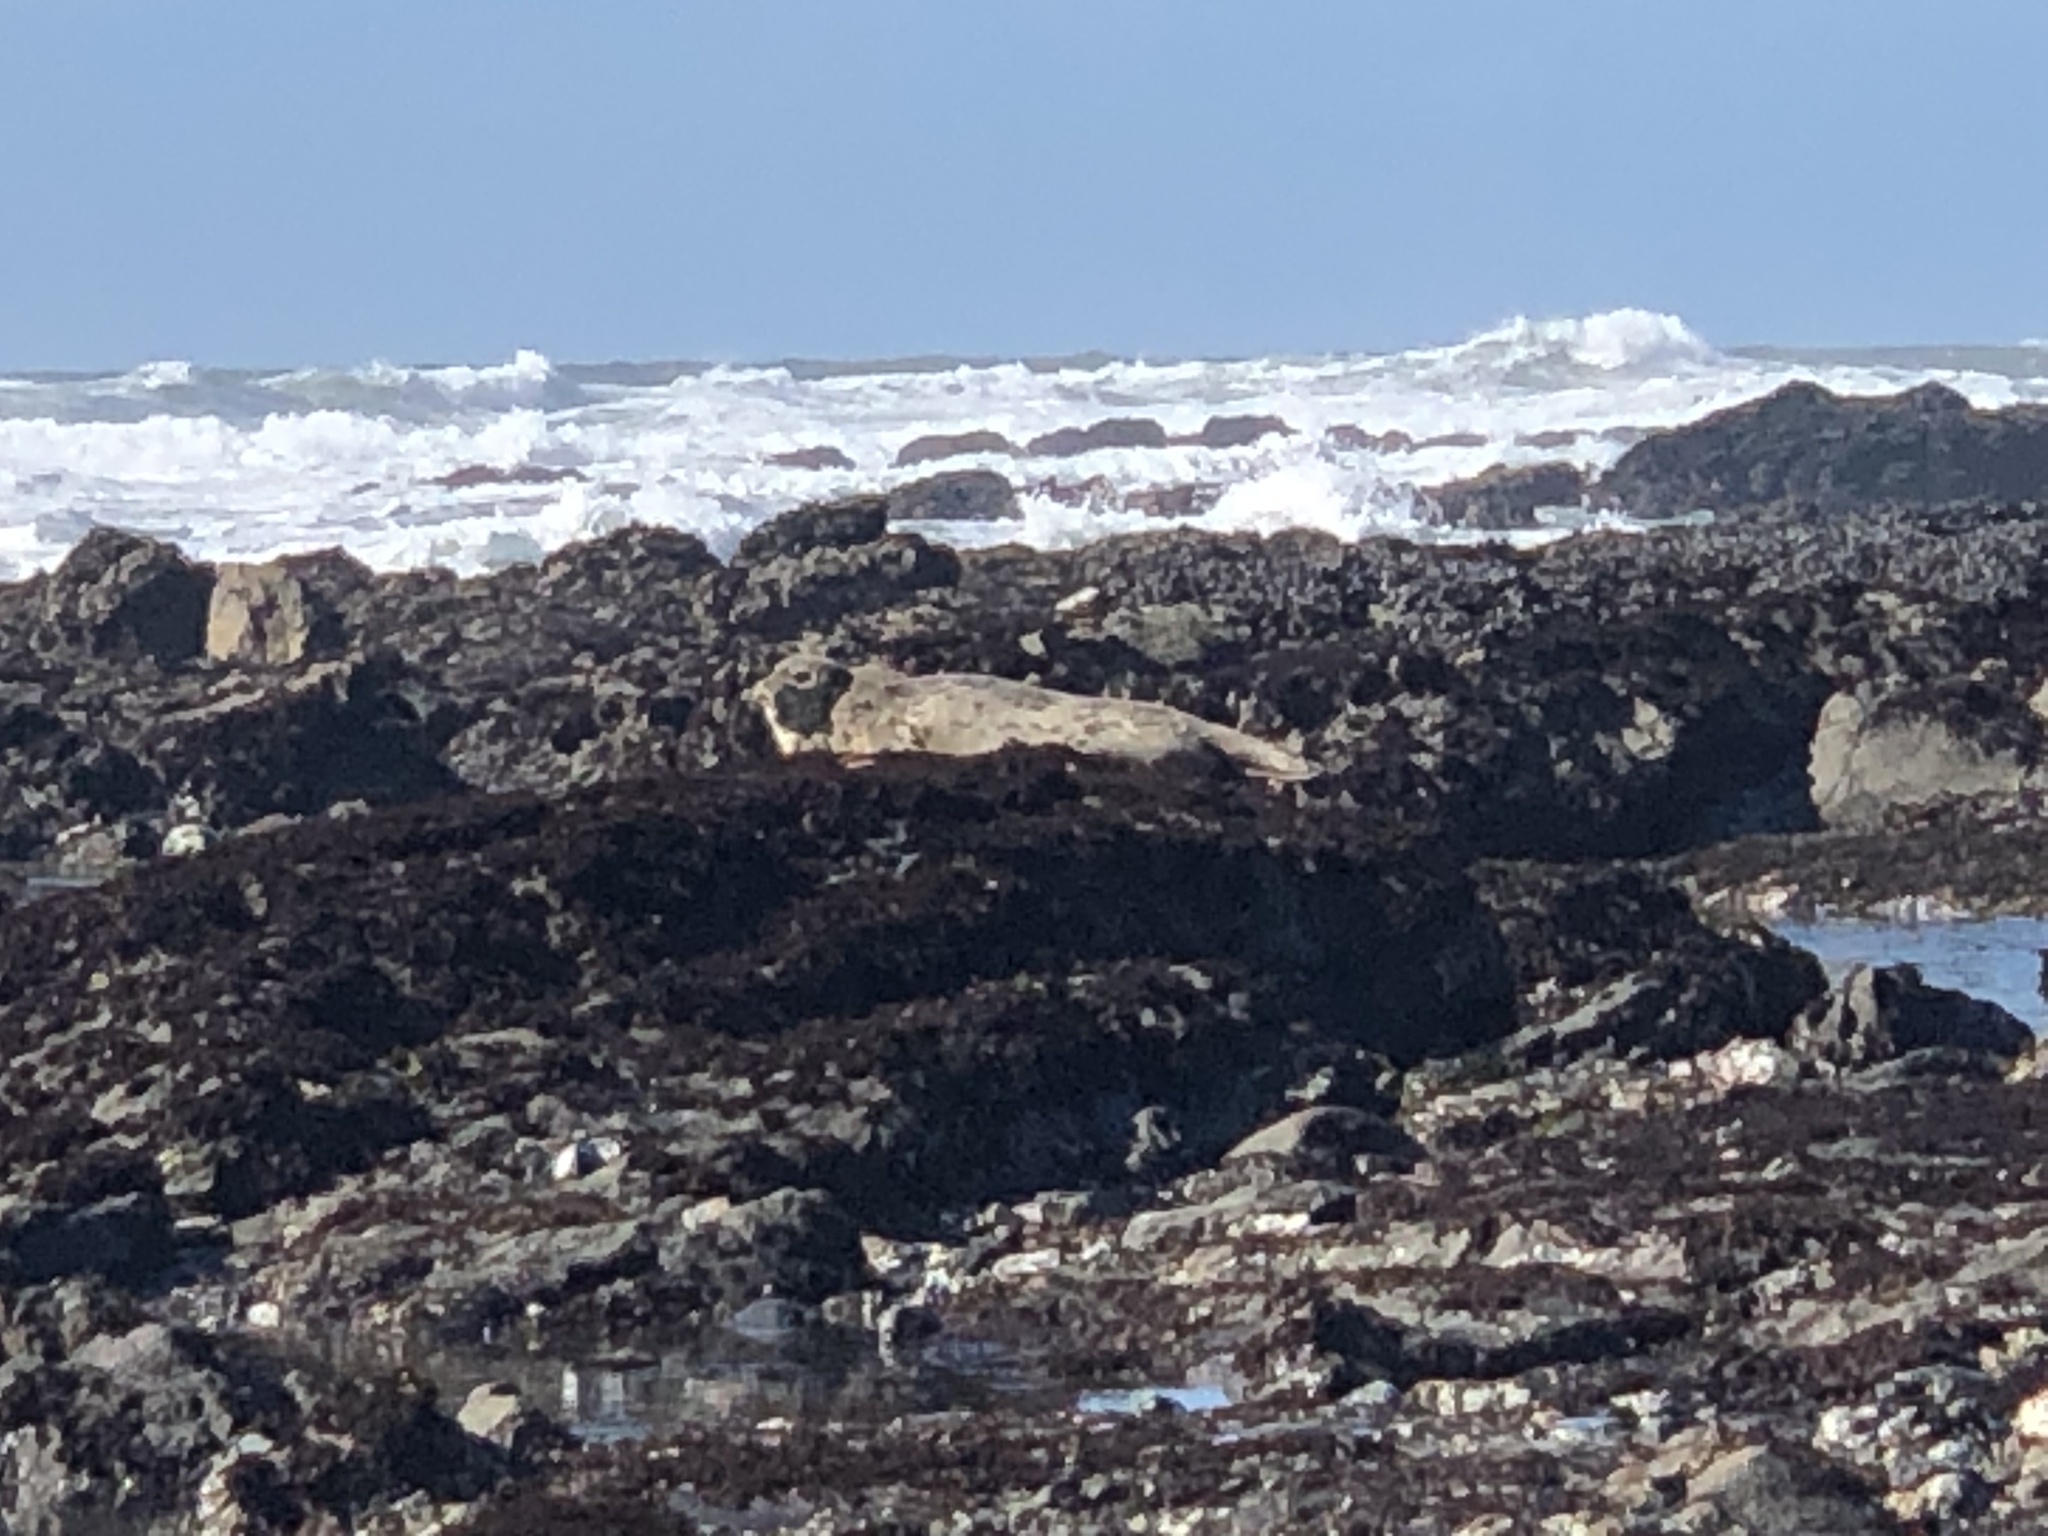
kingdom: Animalia
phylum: Chordata
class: Mammalia
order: Carnivora
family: Phocidae
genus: Phoca
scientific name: Phoca vitulina
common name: Harbor seal
